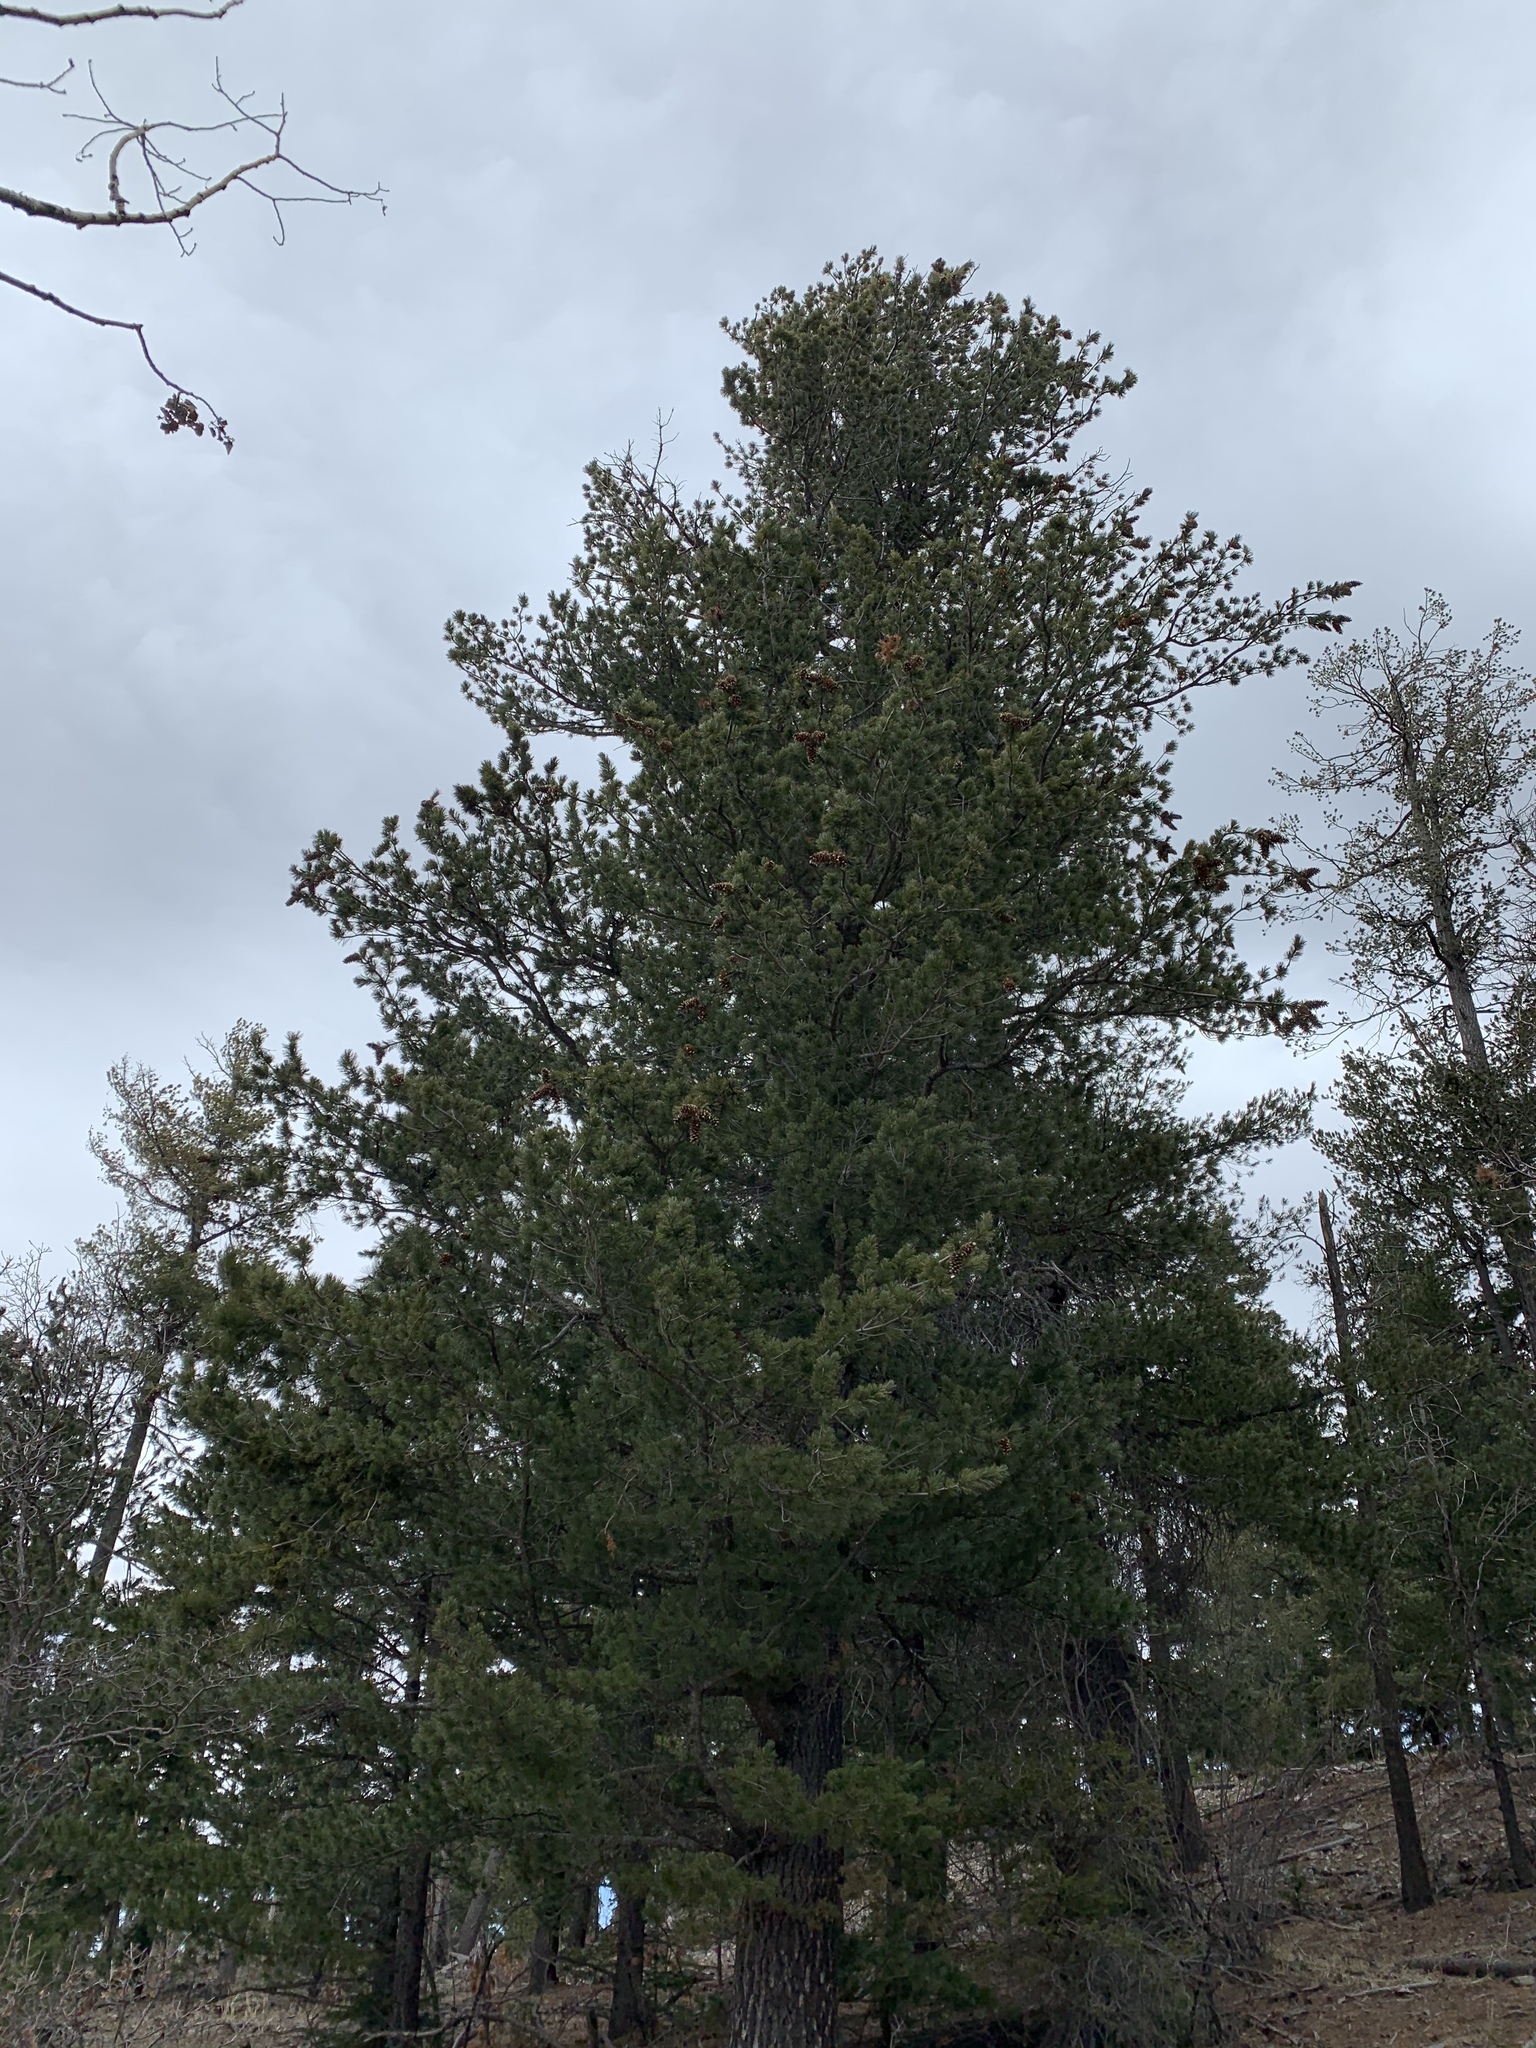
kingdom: Plantae
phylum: Tracheophyta
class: Pinopsida
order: Pinales
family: Pinaceae
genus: Pinus
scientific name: Pinus strobiformis
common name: Southwestern white pine
